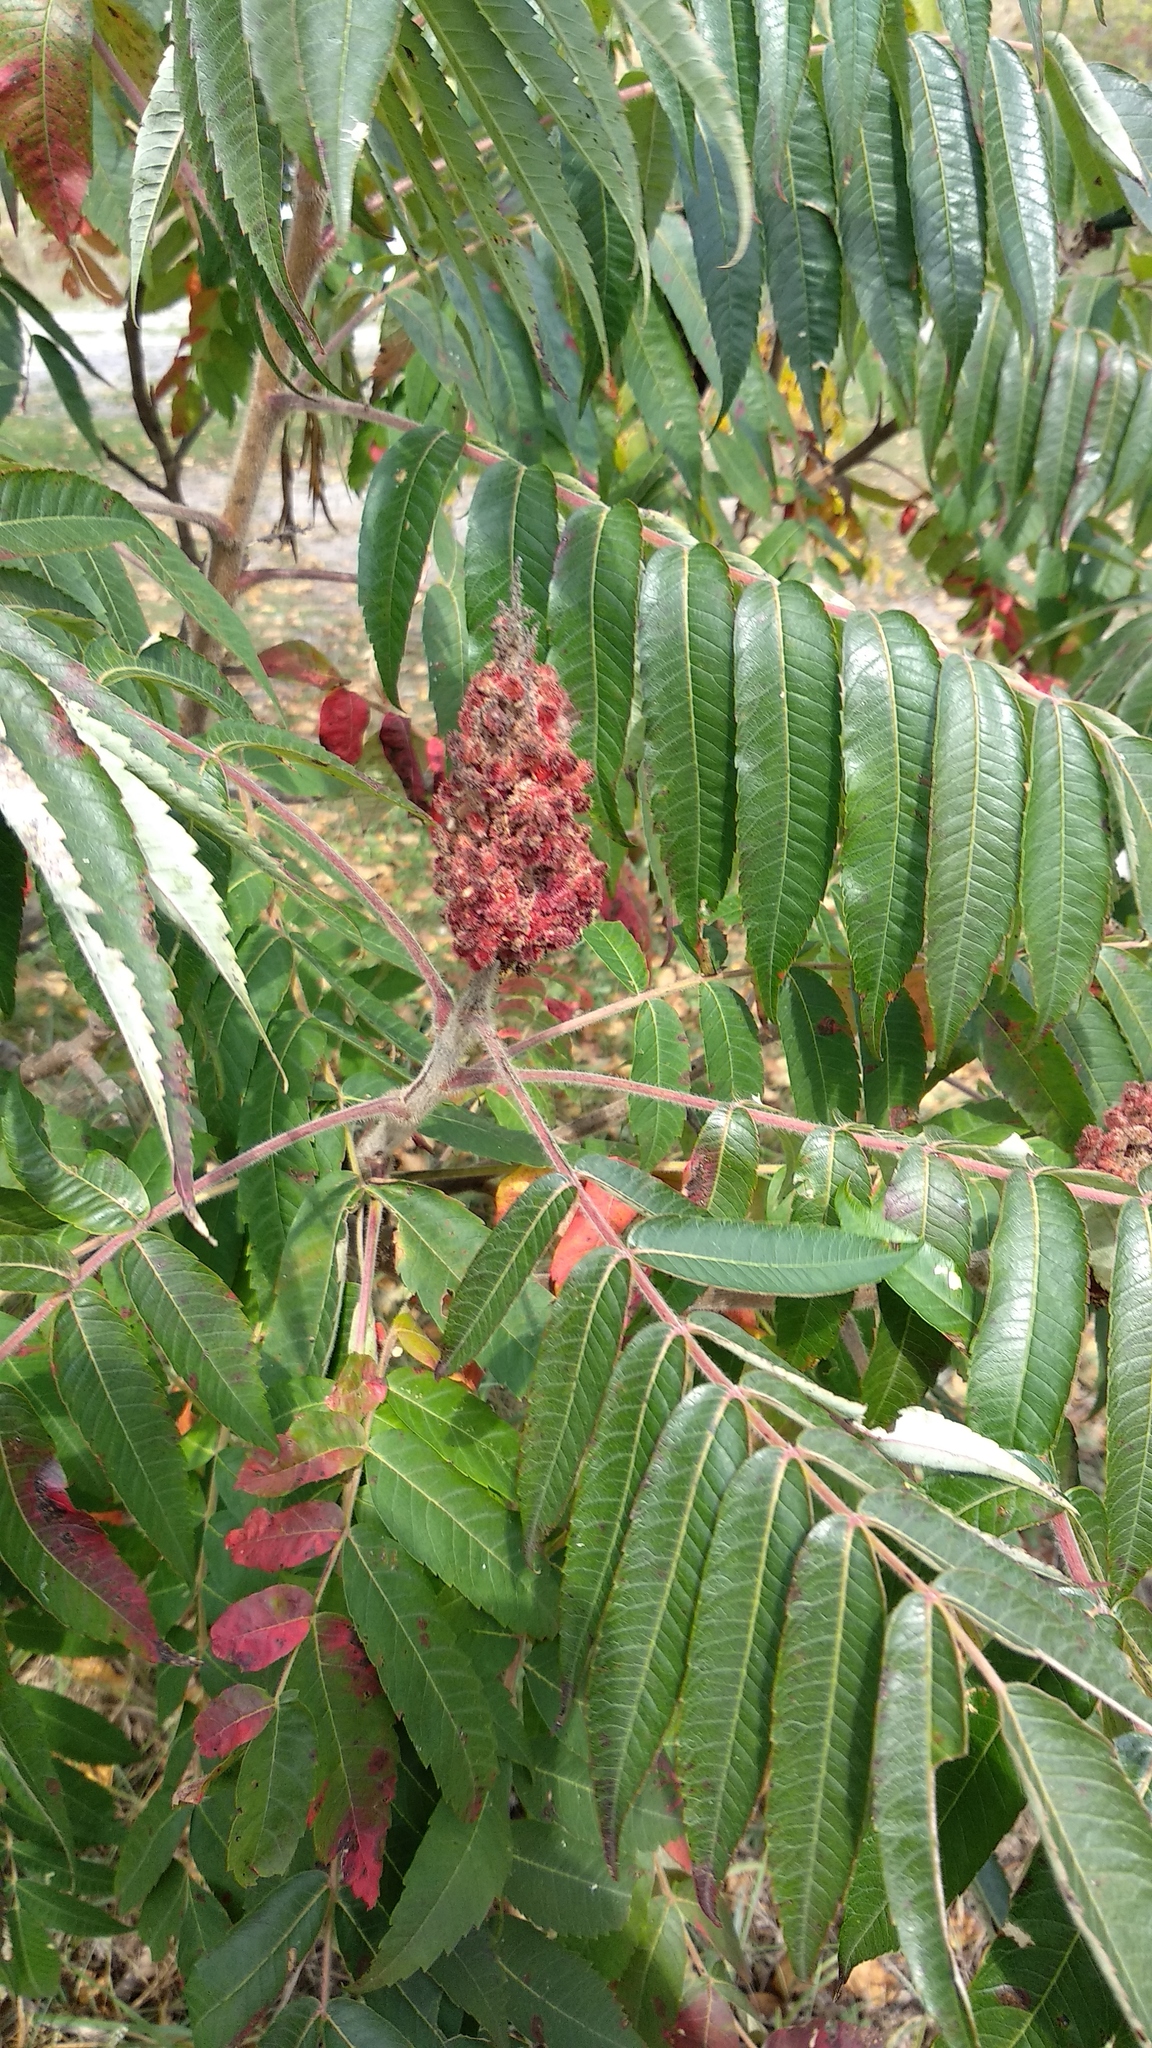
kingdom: Plantae
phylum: Tracheophyta
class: Magnoliopsida
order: Sapindales
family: Anacardiaceae
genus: Rhus
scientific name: Rhus typhina
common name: Staghorn sumac
